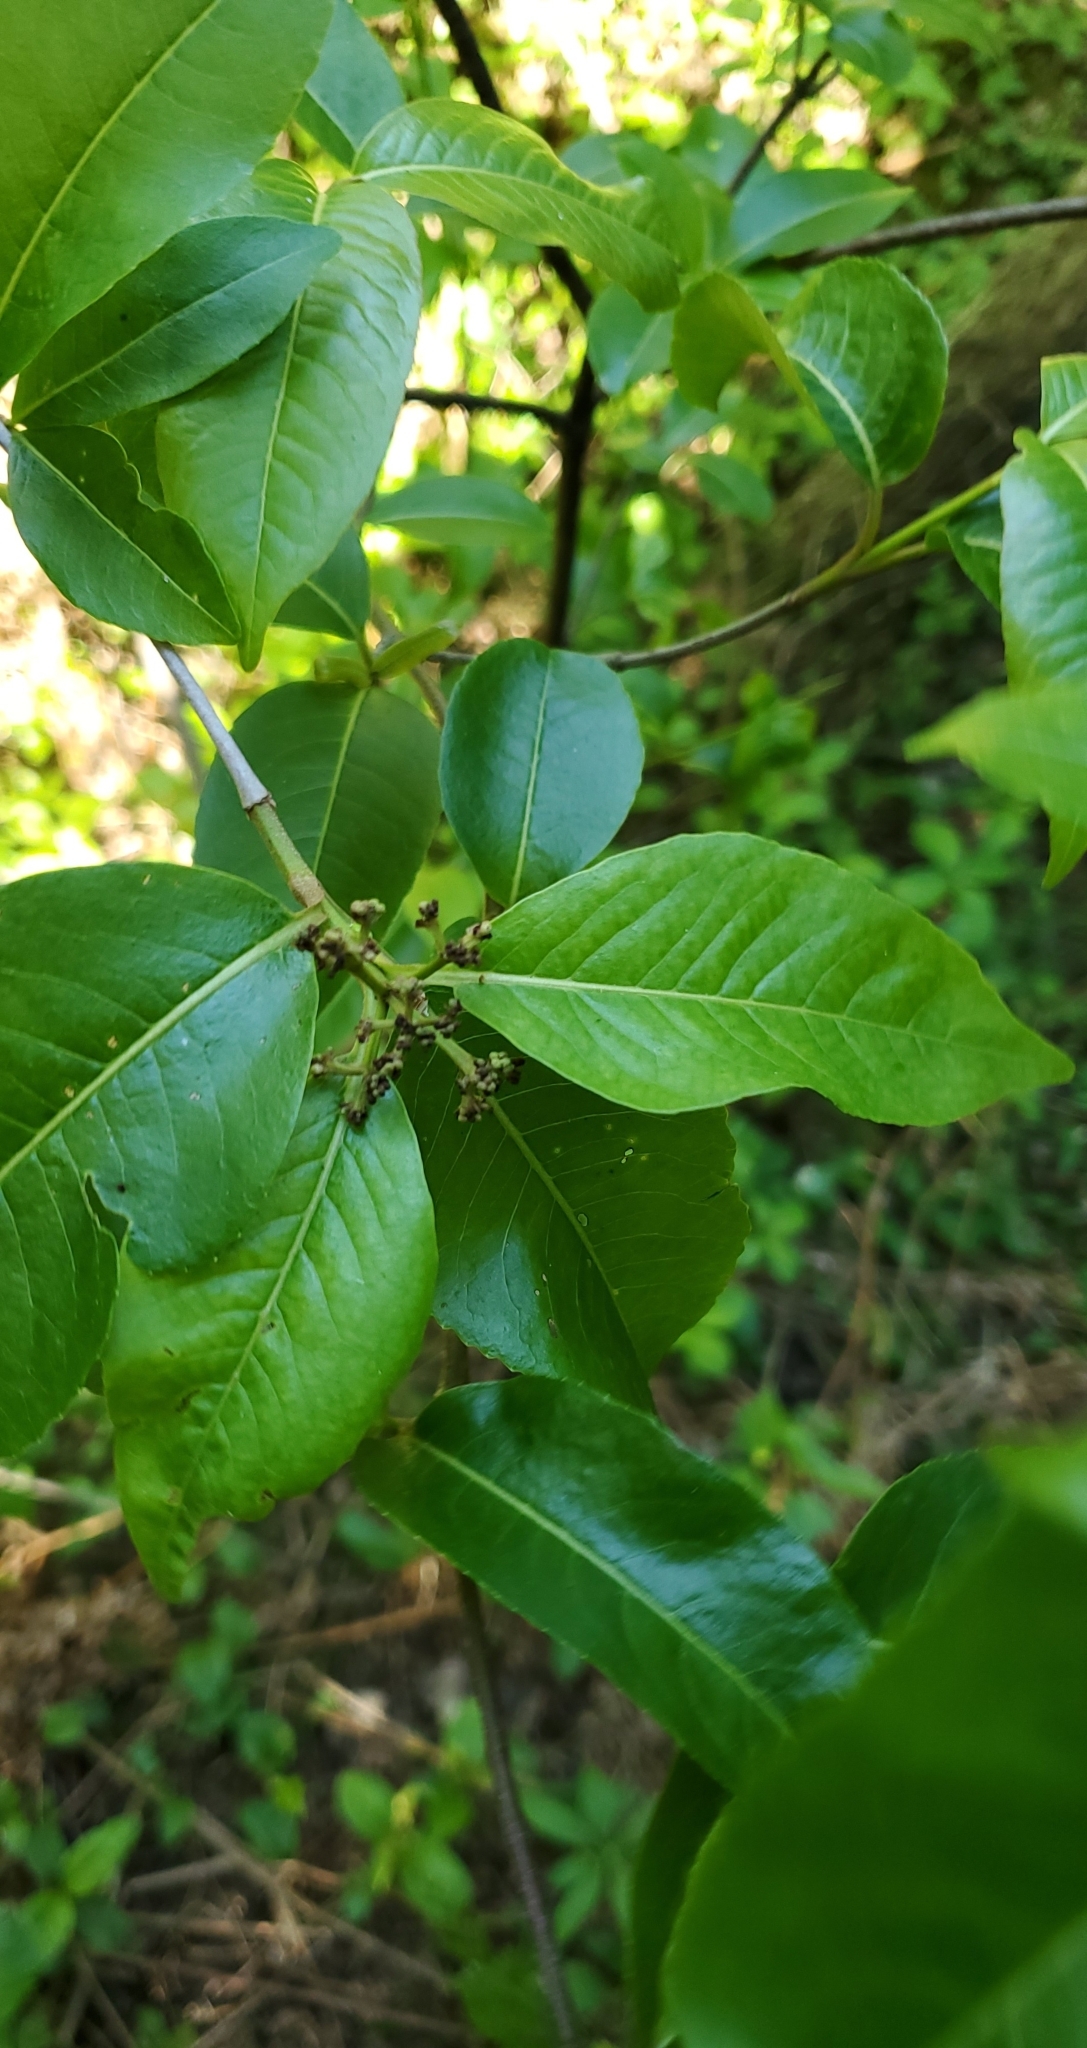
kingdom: Plantae
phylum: Tracheophyta
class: Magnoliopsida
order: Dipsacales
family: Viburnaceae
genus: Viburnum
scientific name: Viburnum cassinoides
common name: Swamp haw
